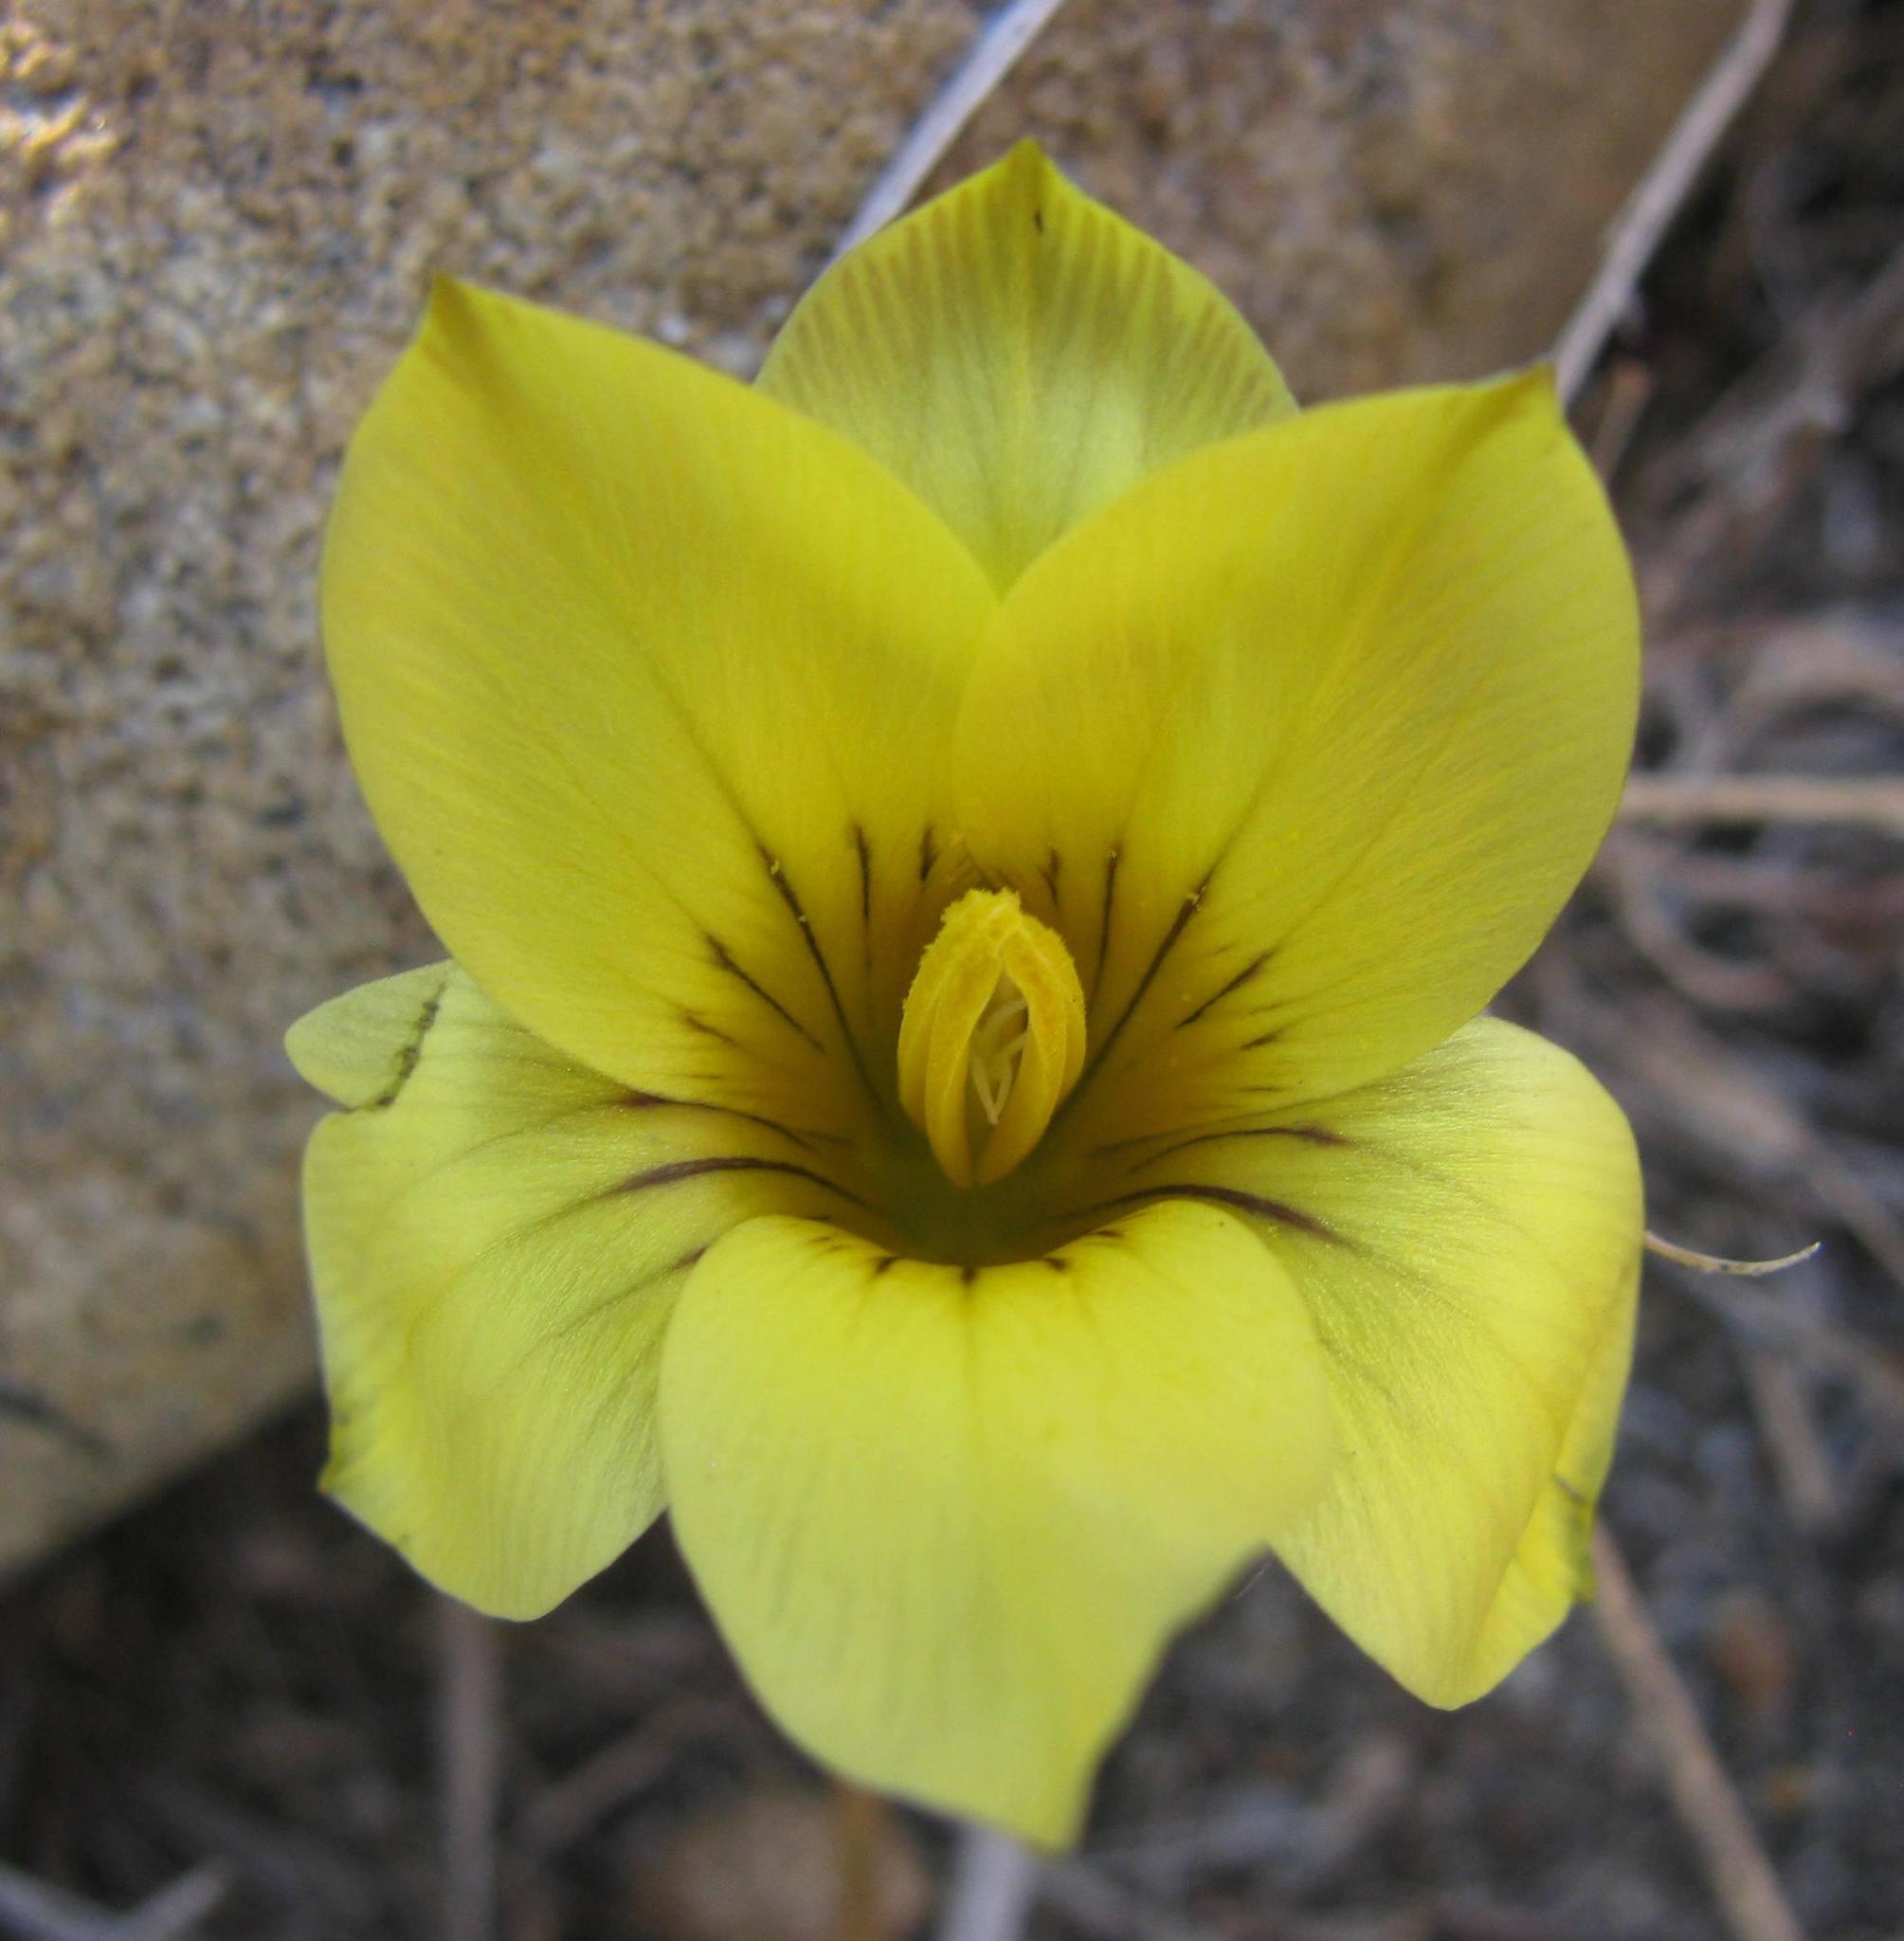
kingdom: Plantae
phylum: Tracheophyta
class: Liliopsida
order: Asparagales
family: Iridaceae
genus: Romulea
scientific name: Romulea austinii
